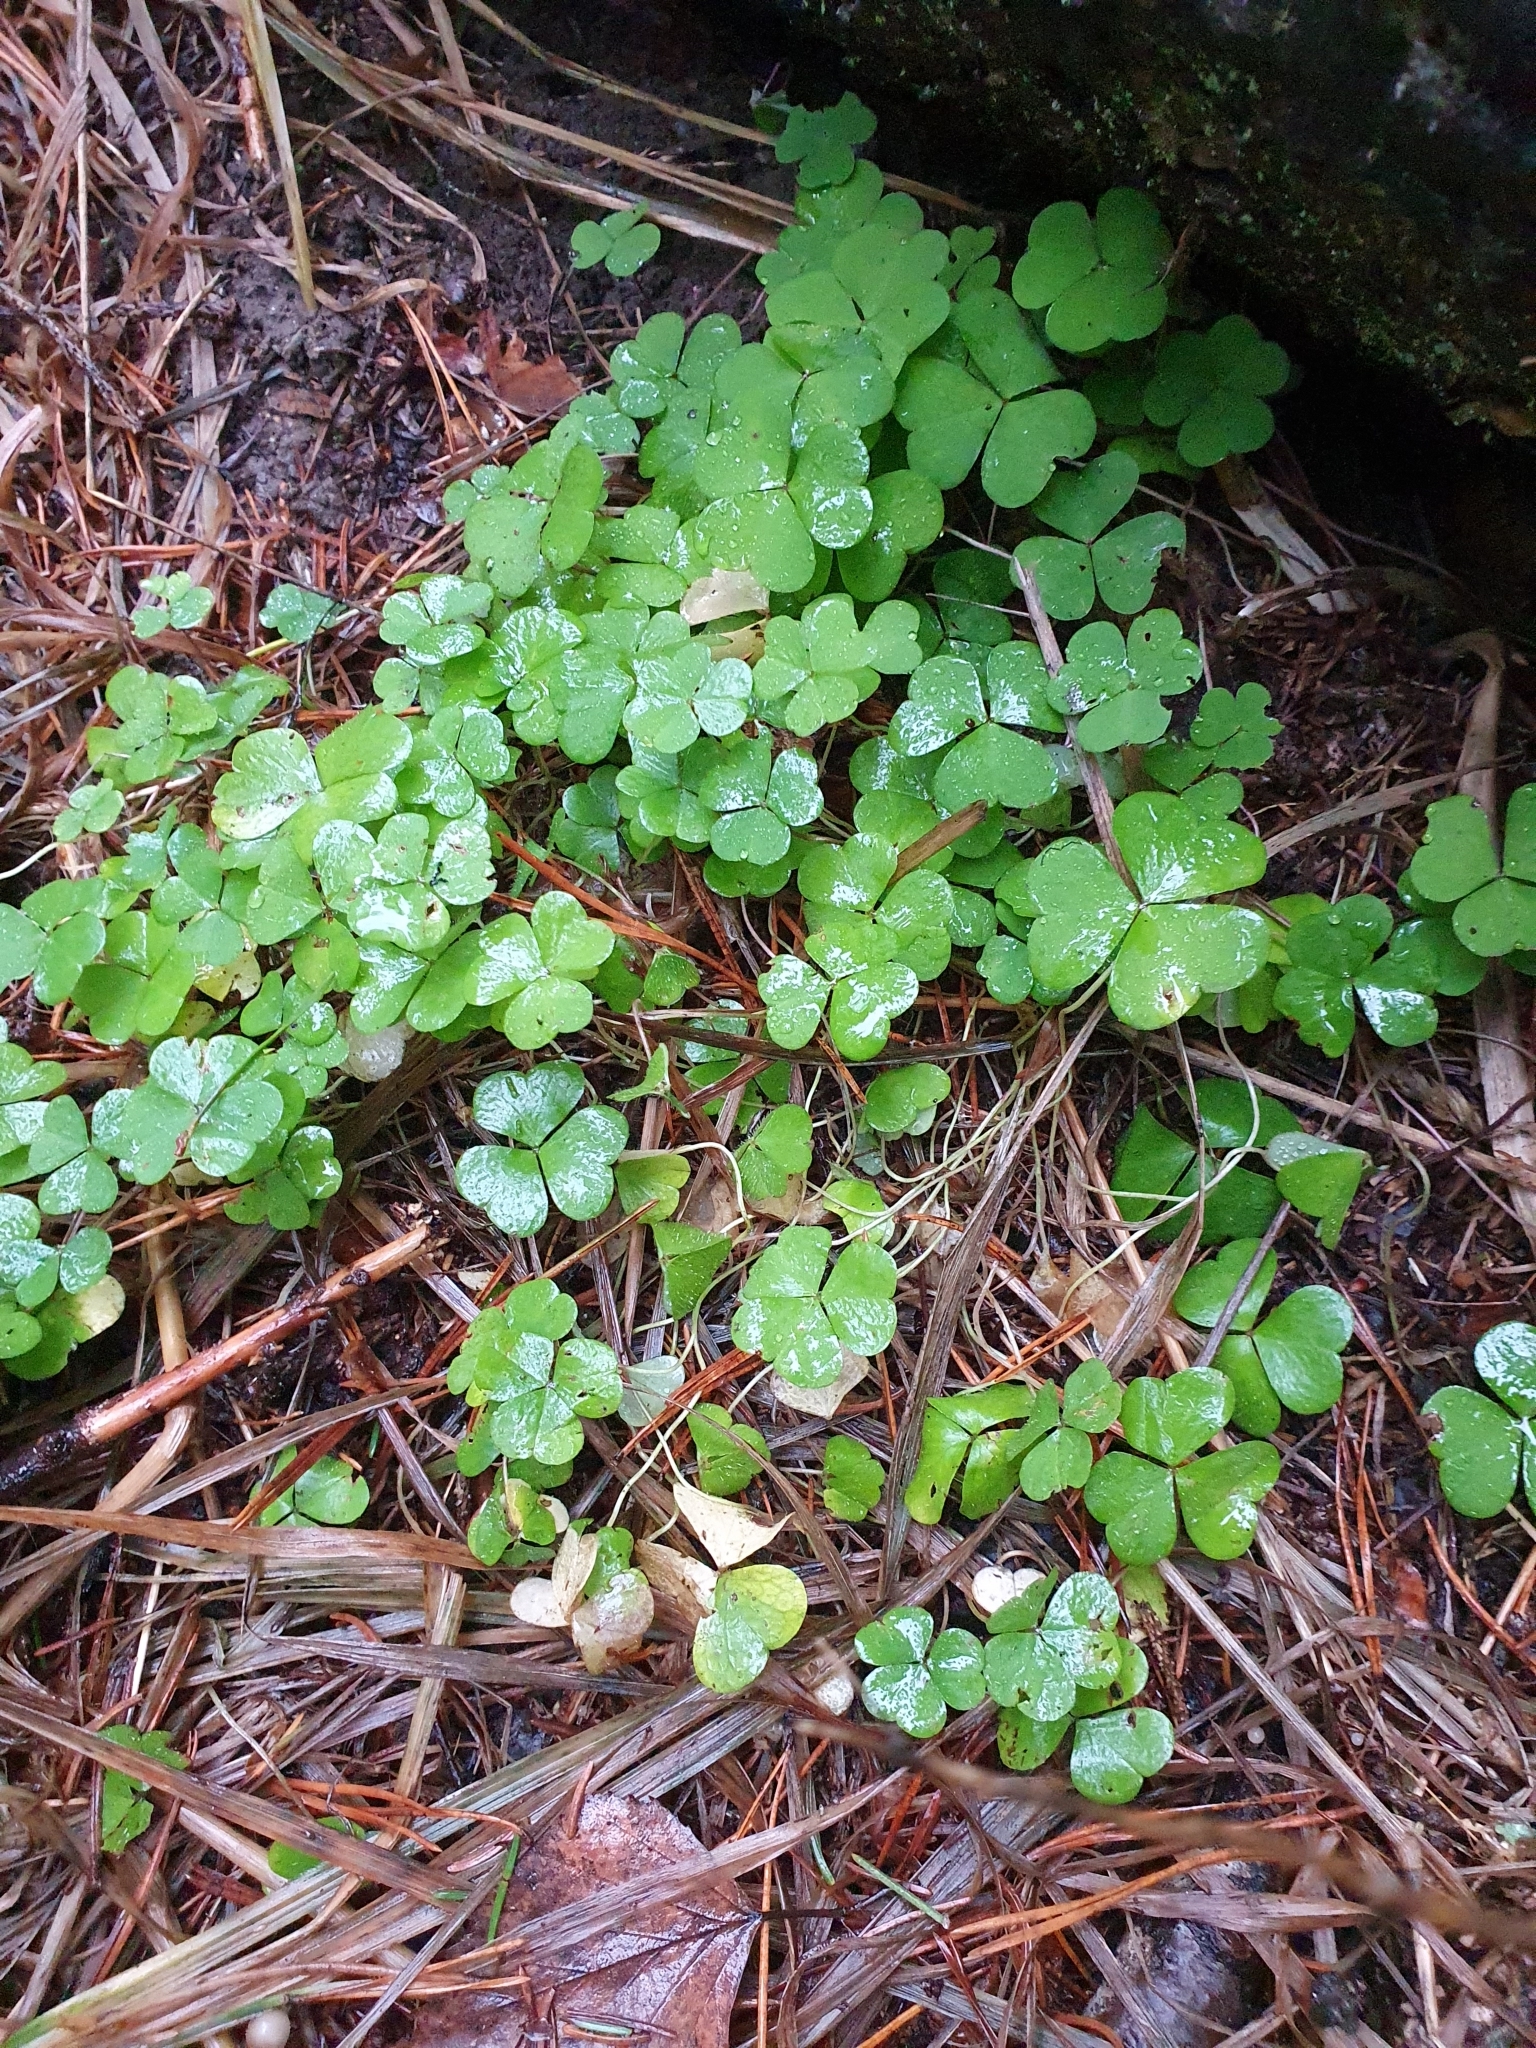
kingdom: Plantae
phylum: Tracheophyta
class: Magnoliopsida
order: Oxalidales
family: Oxalidaceae
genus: Oxalis
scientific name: Oxalis acetosella
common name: Wood-sorrel
